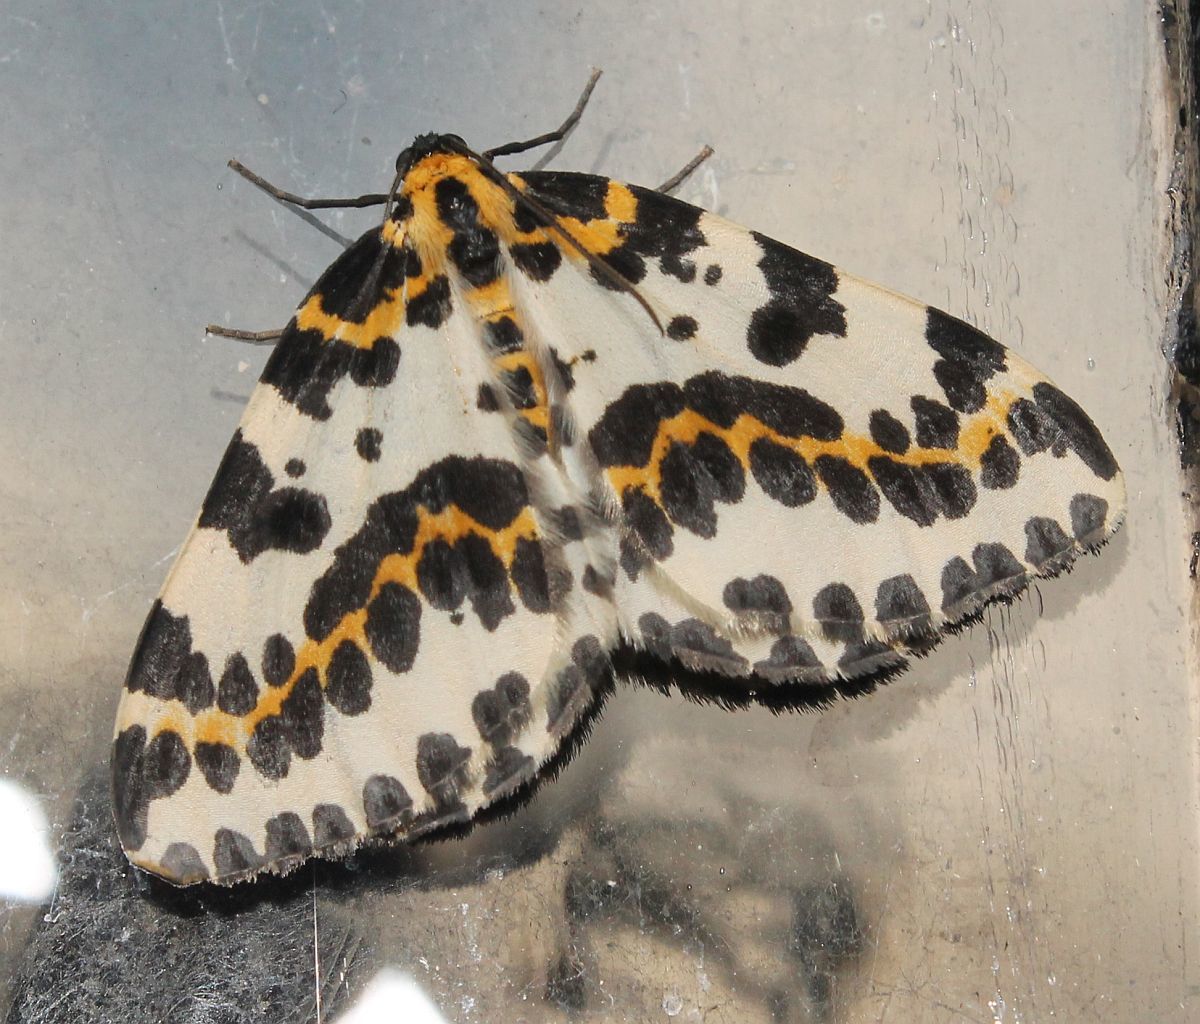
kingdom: Animalia
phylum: Arthropoda
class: Insecta
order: Lepidoptera
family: Geometridae
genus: Abraxas
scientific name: Abraxas grossulariata
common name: Magpie
